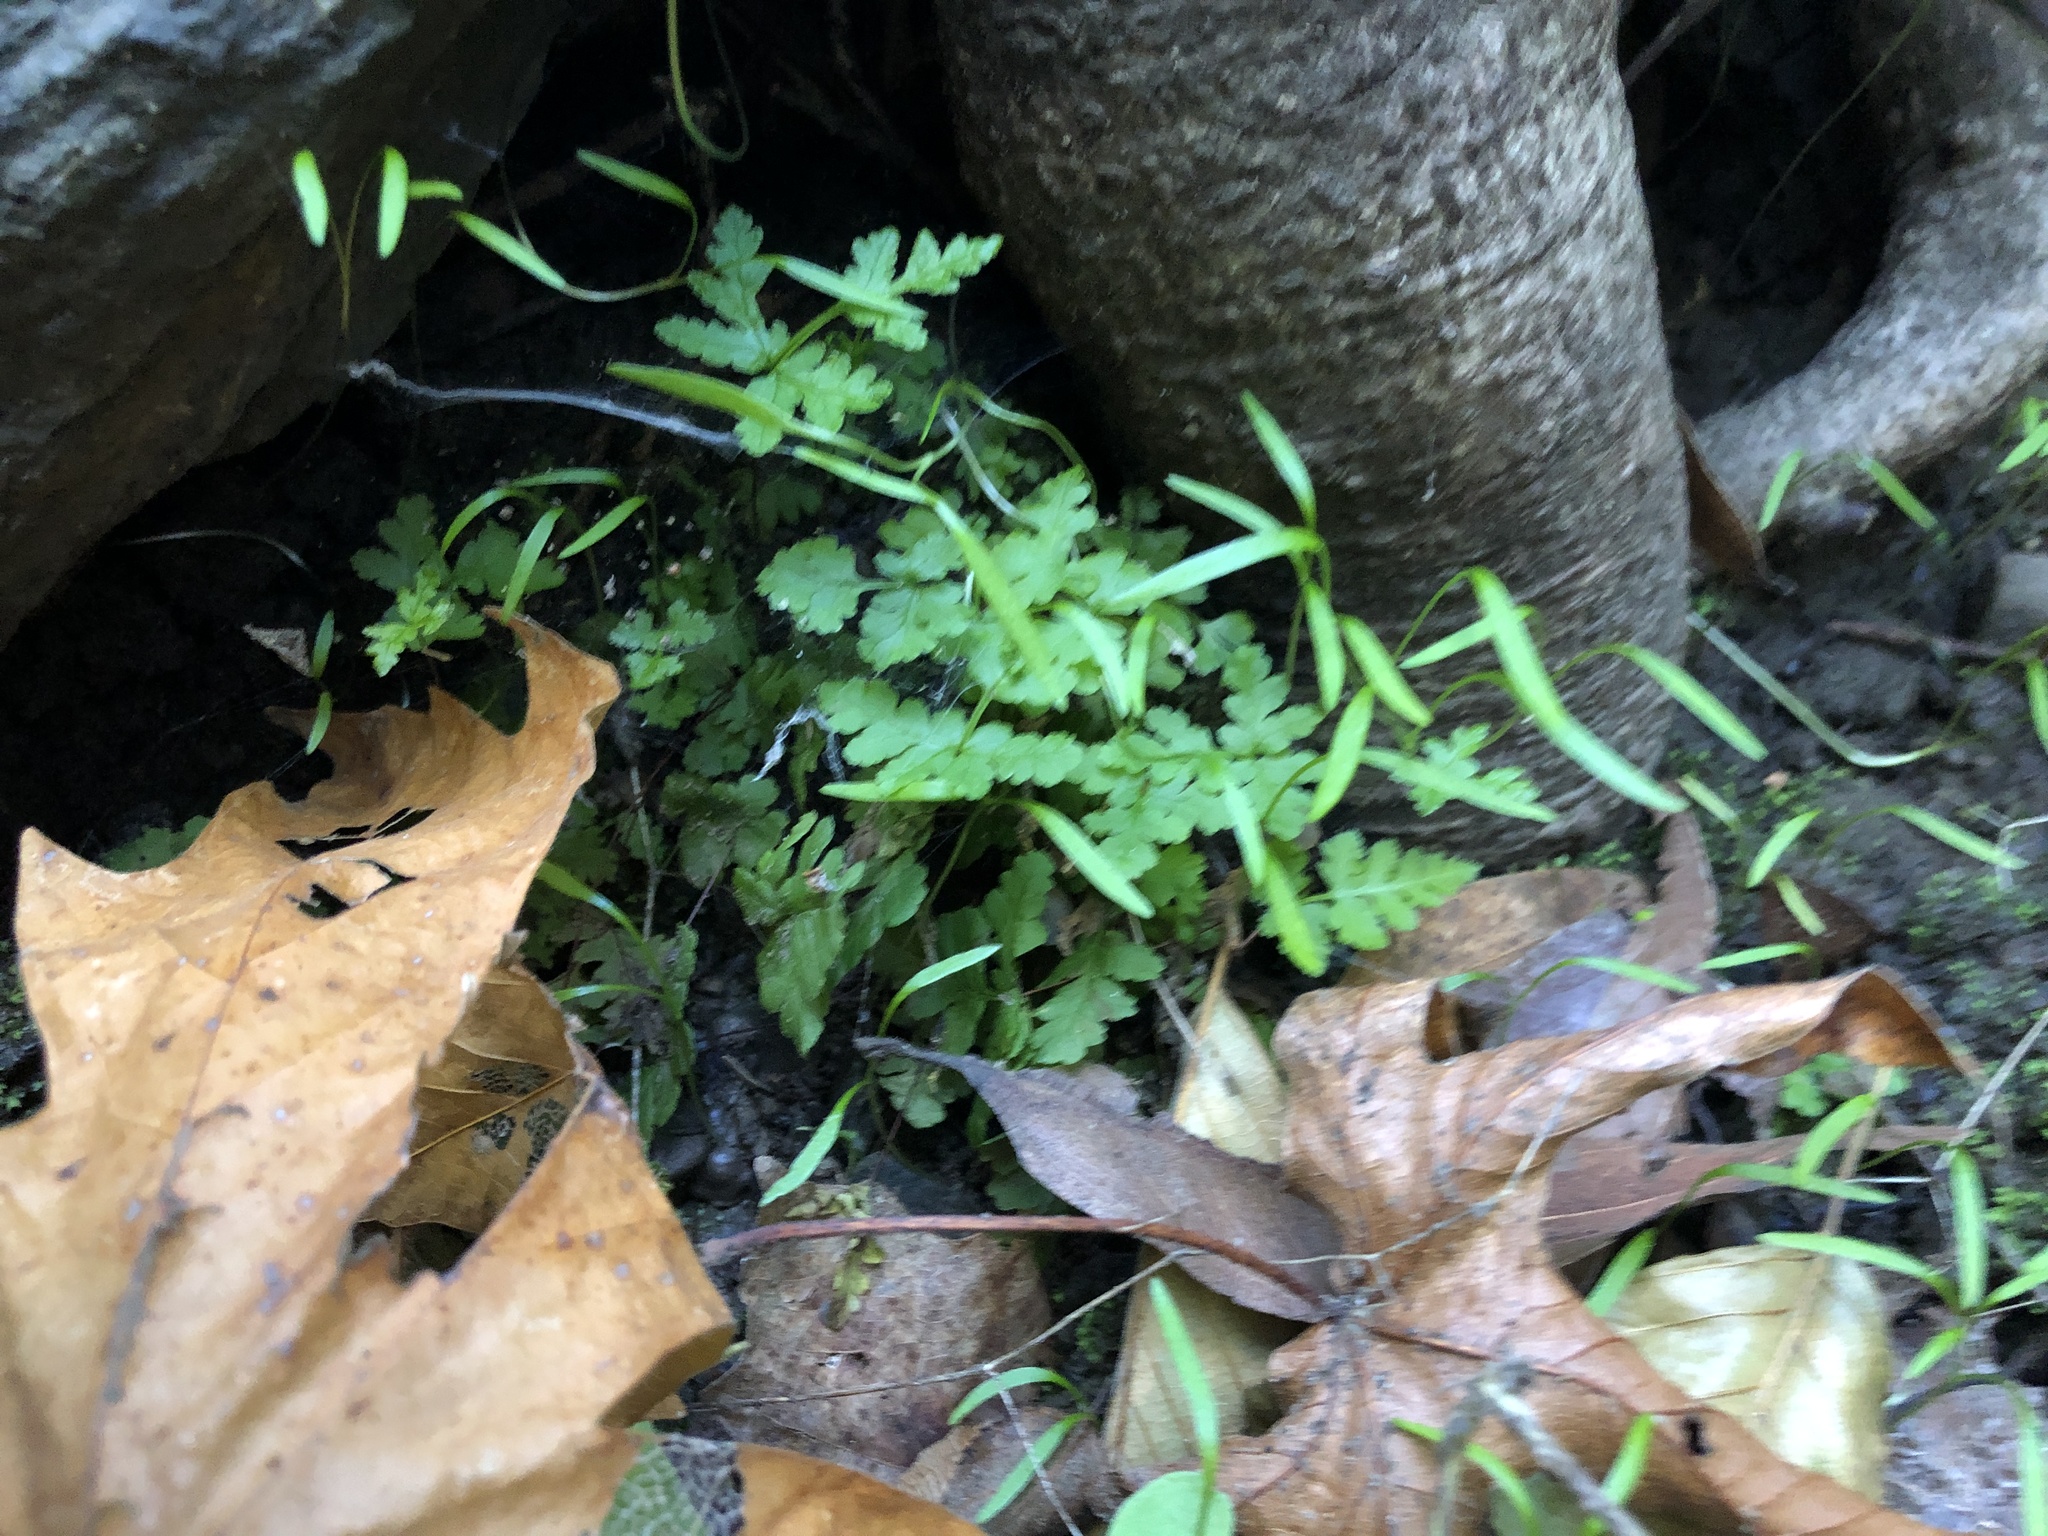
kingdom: Plantae
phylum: Tracheophyta
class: Polypodiopsida
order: Polypodiales
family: Pteridaceae
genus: Pentagramma
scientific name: Pentagramma triangularis
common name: Gold fern
